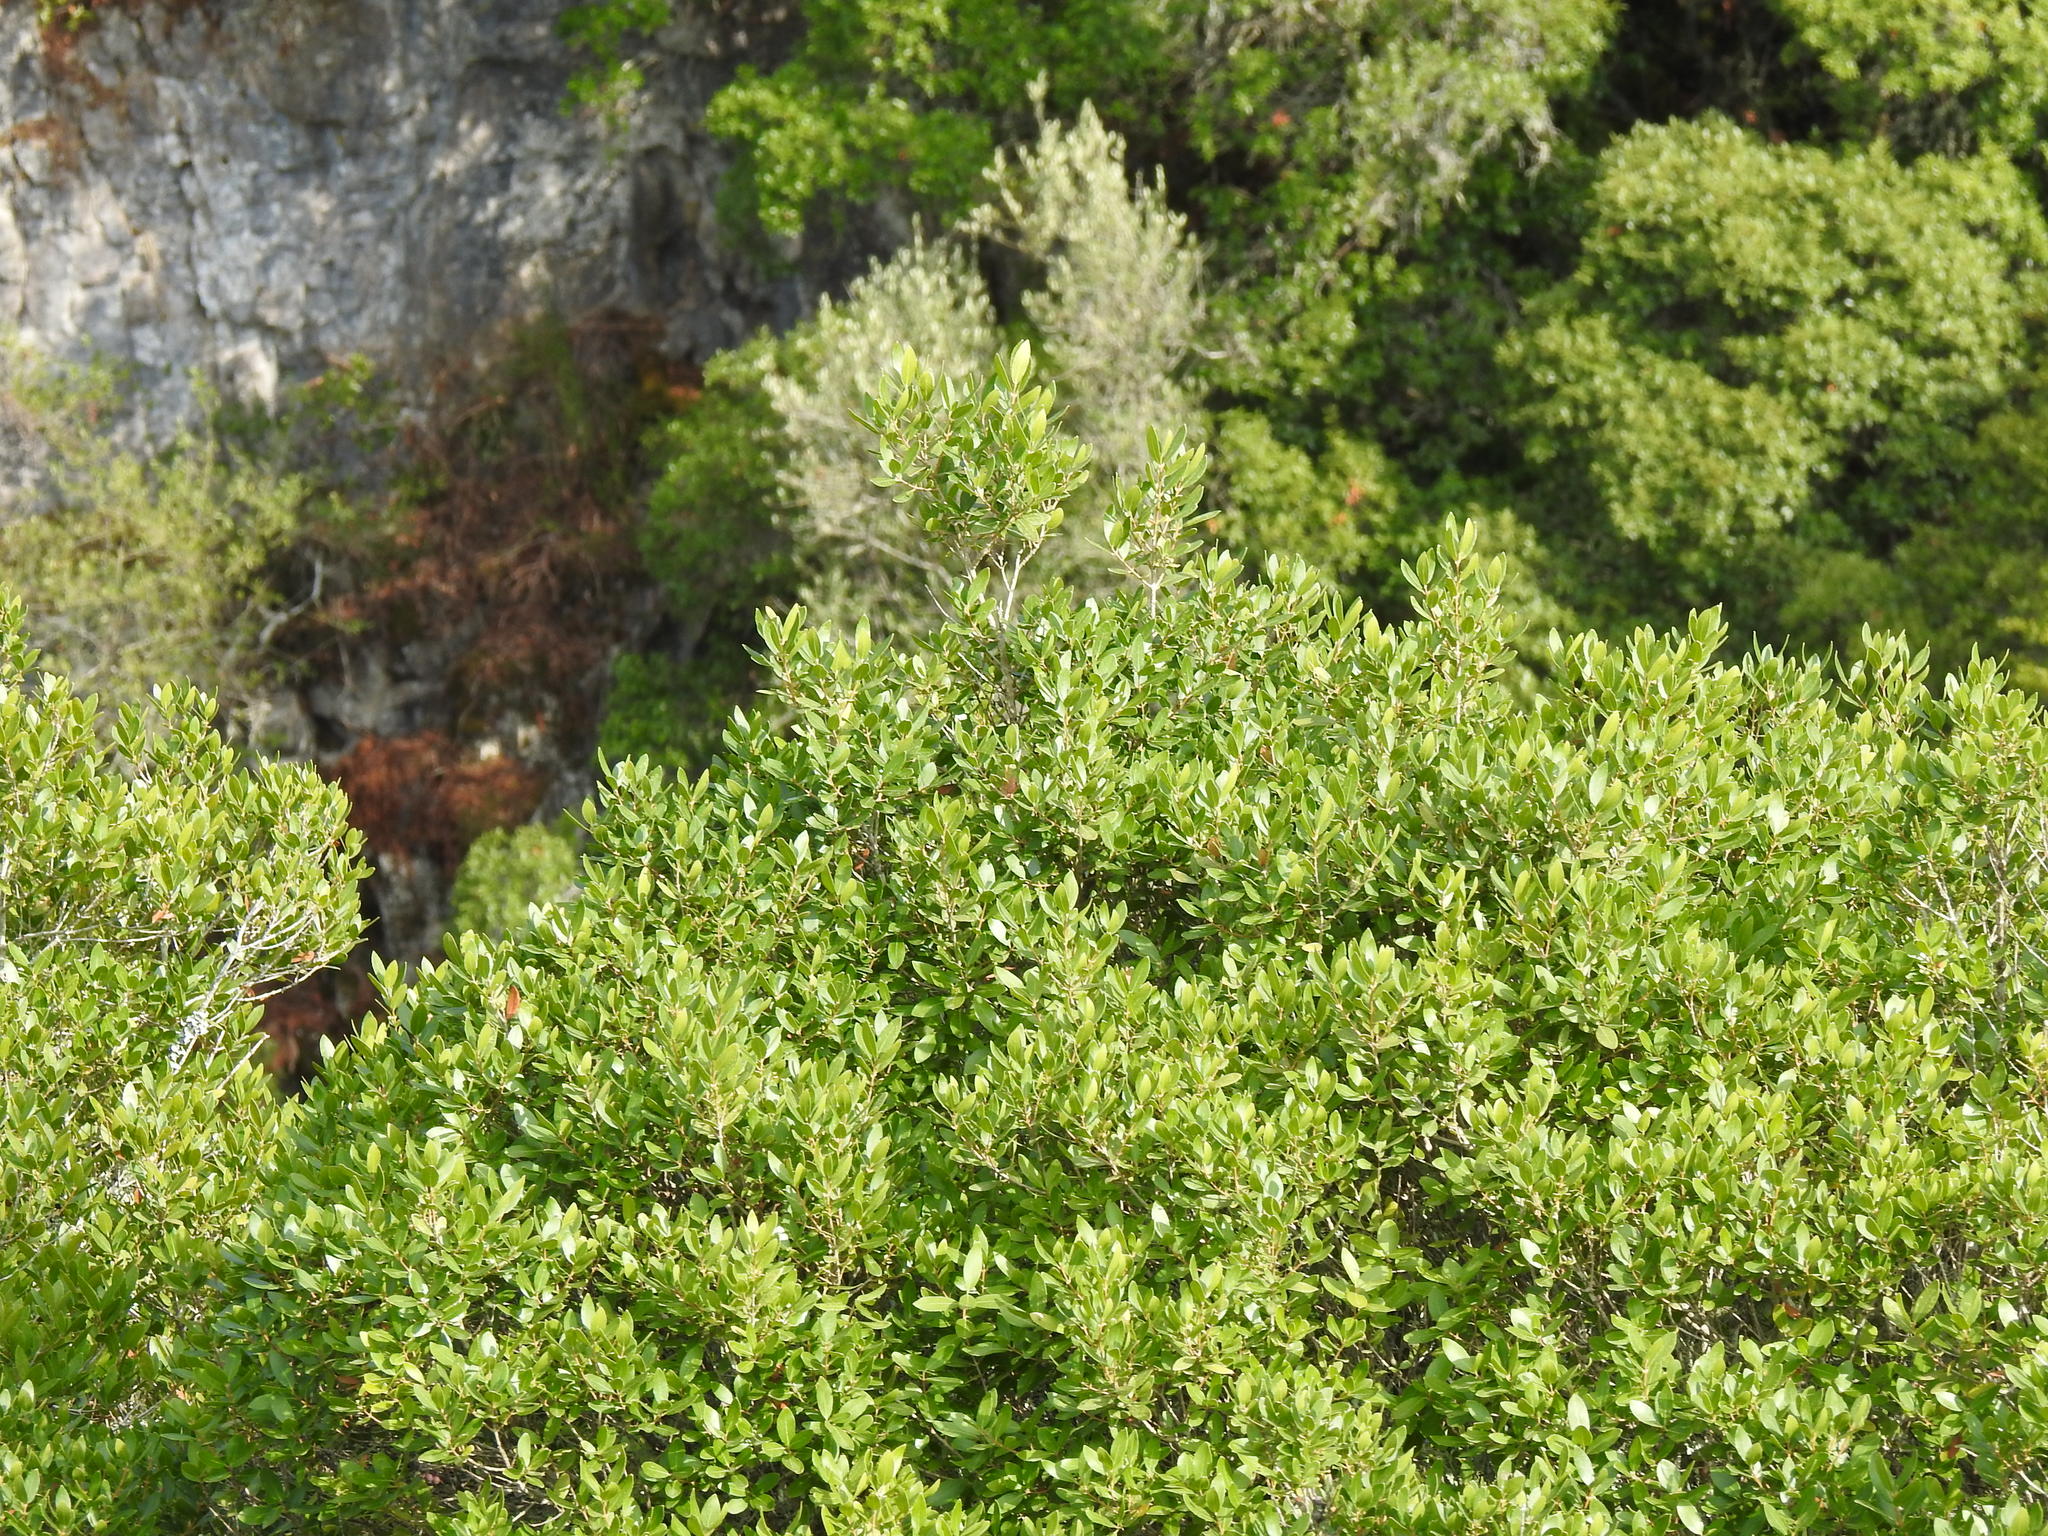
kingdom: Plantae
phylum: Tracheophyta
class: Magnoliopsida
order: Lamiales
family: Oleaceae
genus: Phillyrea
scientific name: Phillyrea latifolia
